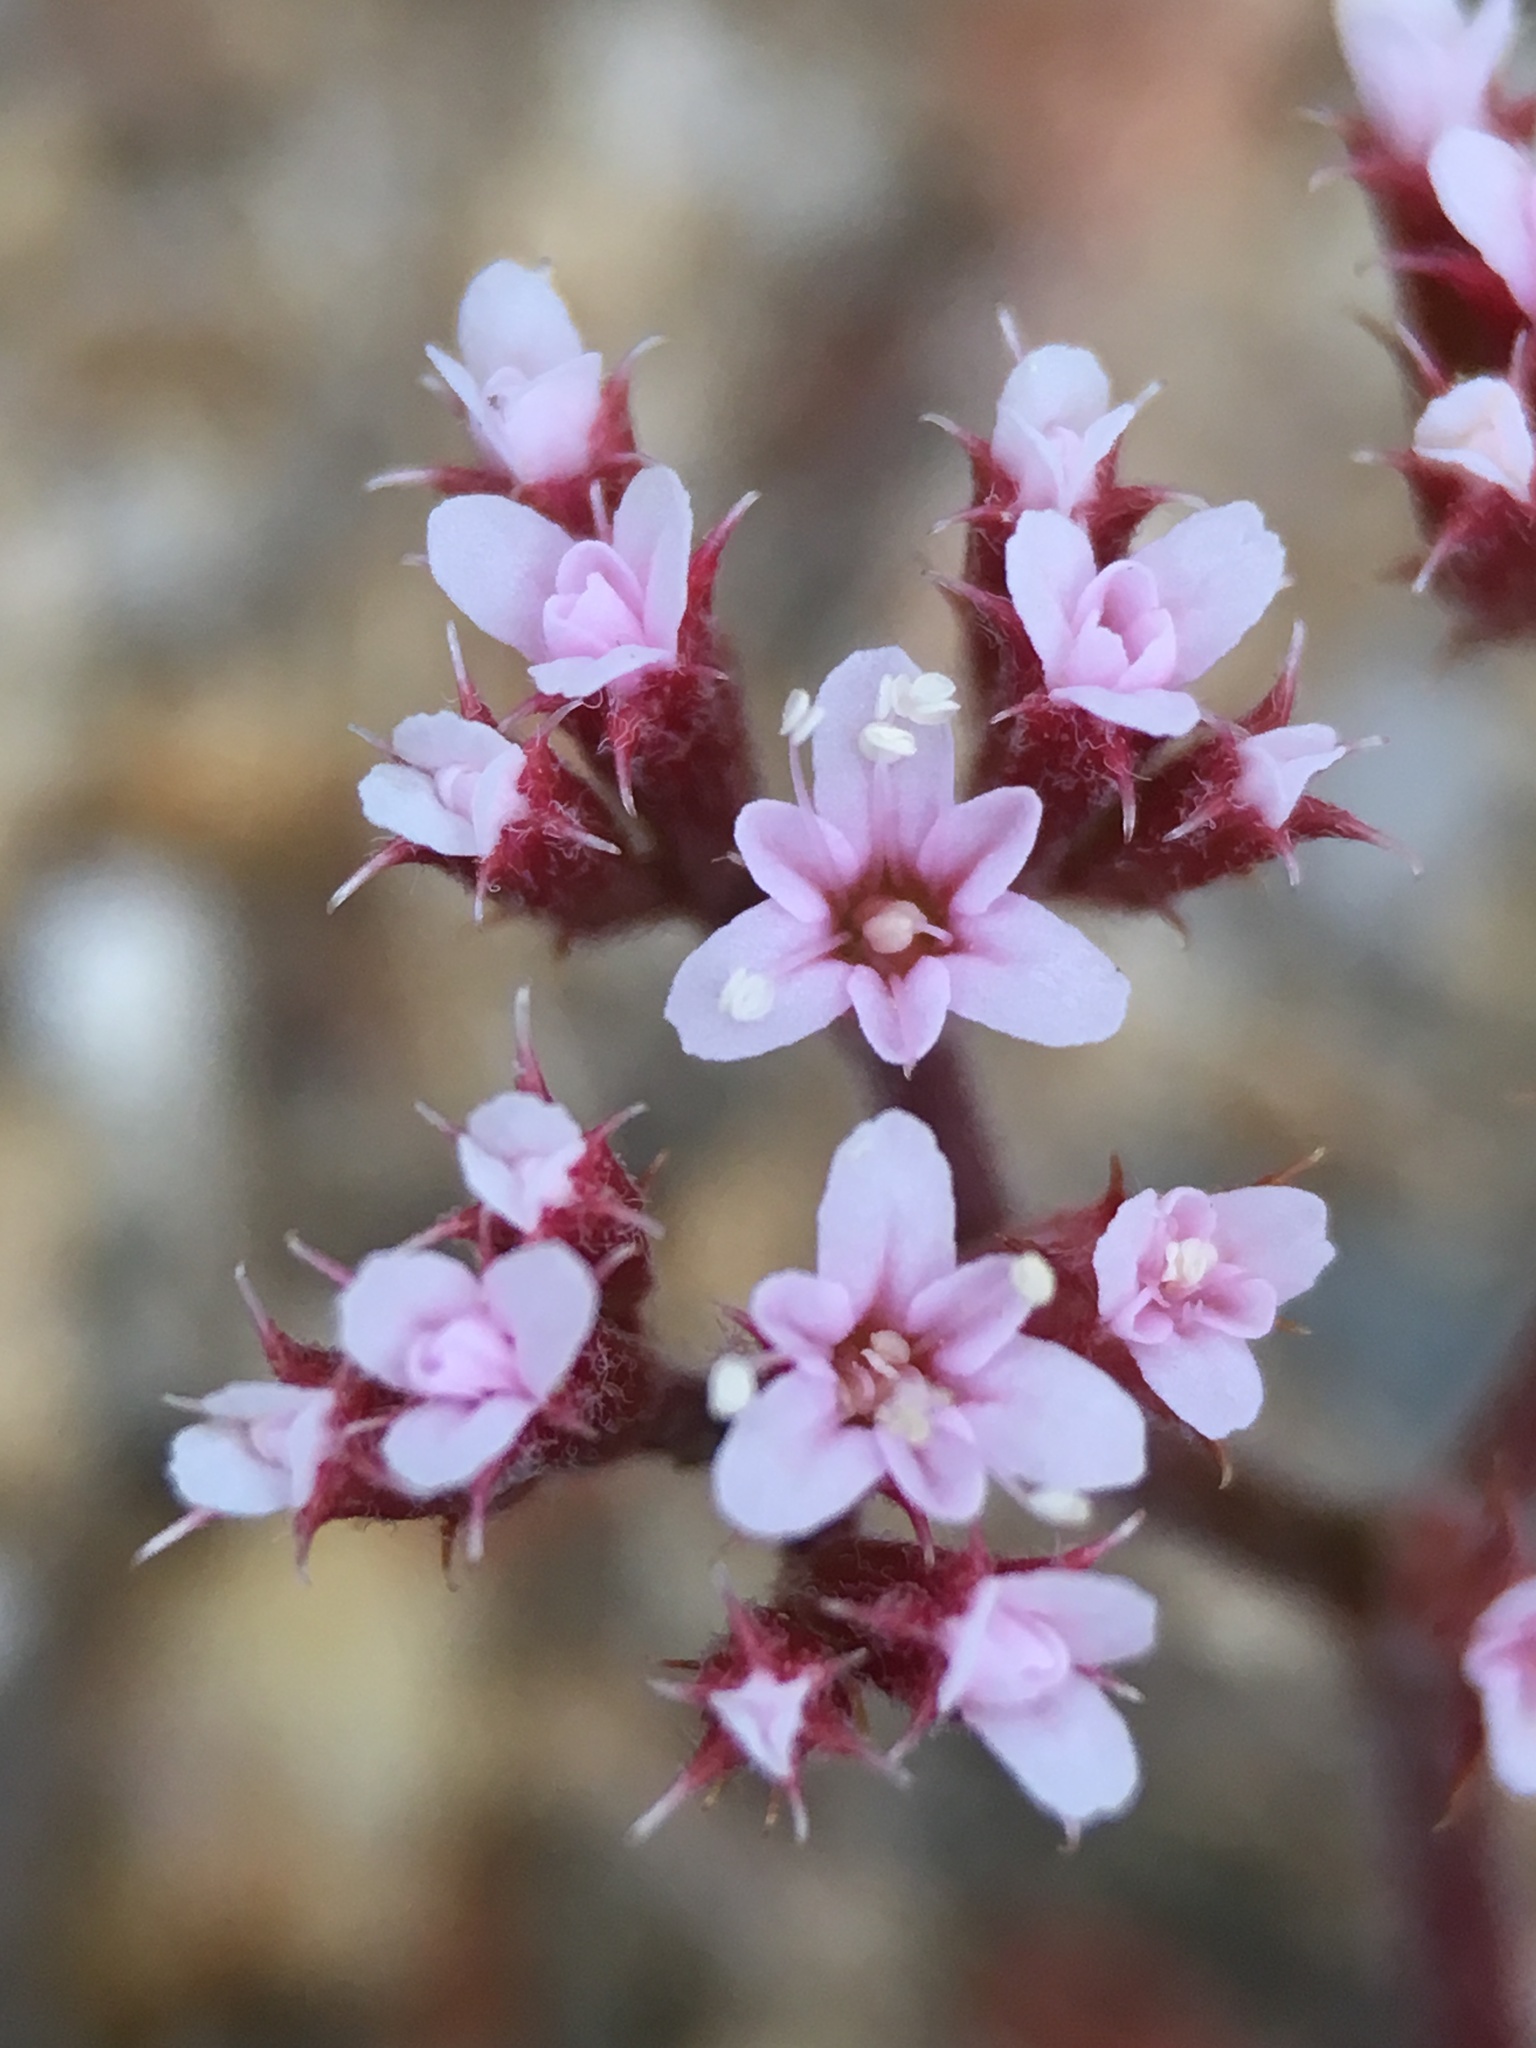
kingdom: Plantae
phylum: Tracheophyta
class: Magnoliopsida
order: Caryophyllales
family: Polygonaceae
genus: Chorizanthe
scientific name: Chorizanthe leptotheca
